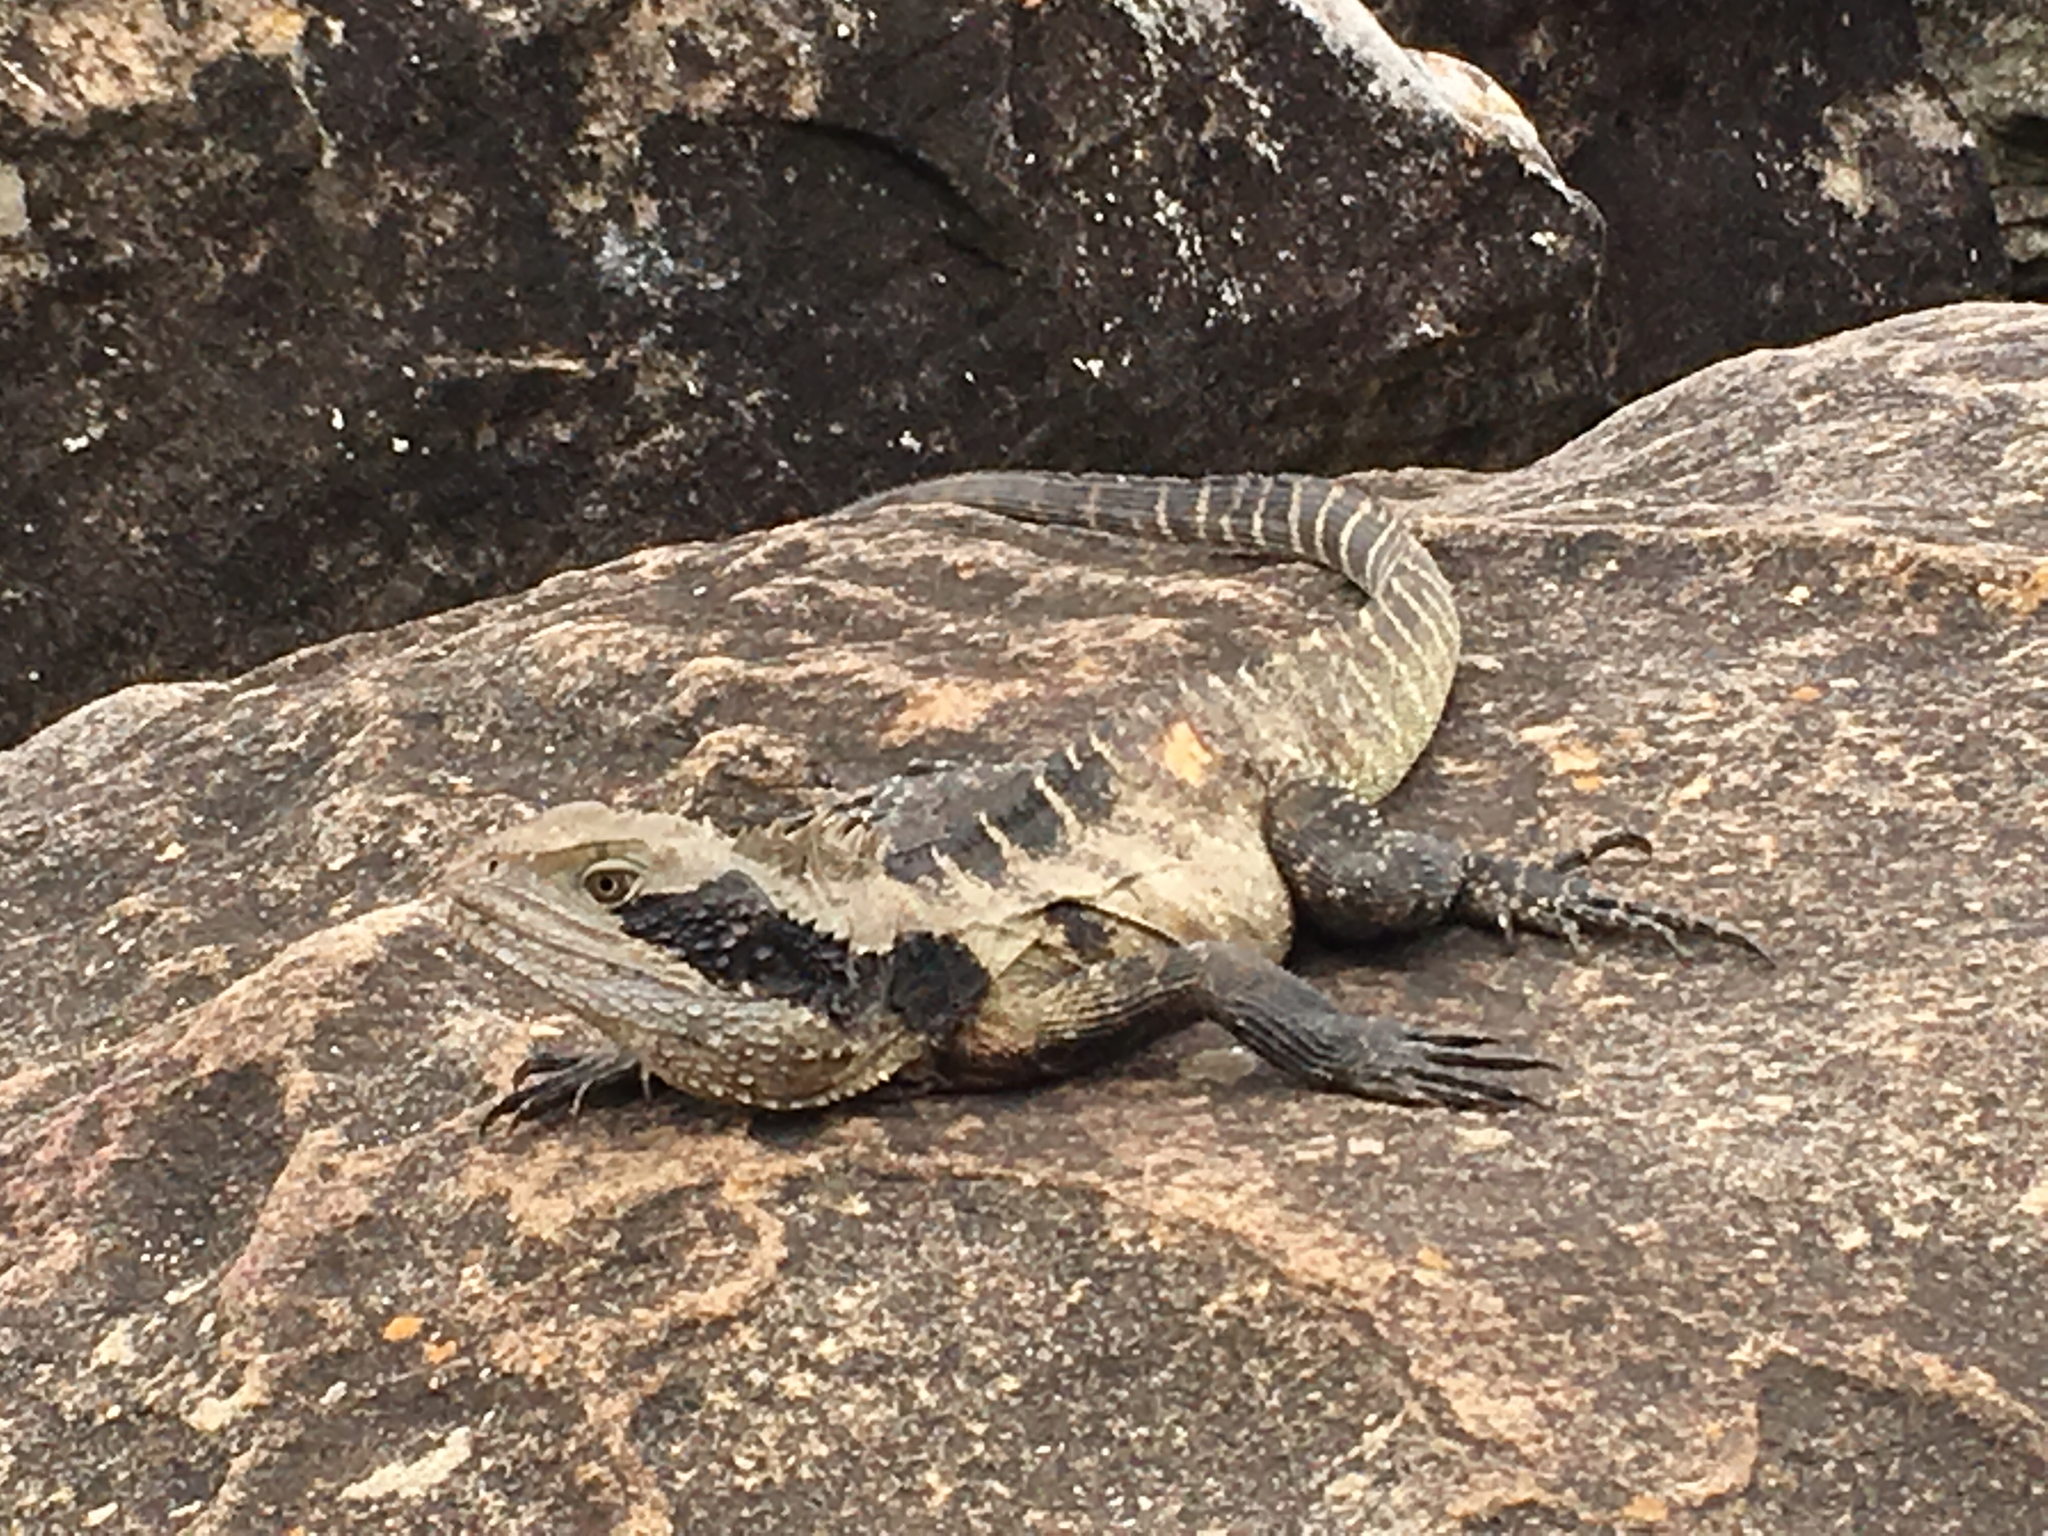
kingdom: Animalia
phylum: Chordata
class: Squamata
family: Agamidae
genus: Intellagama
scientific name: Intellagama lesueurii
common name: Eastern water dragon
